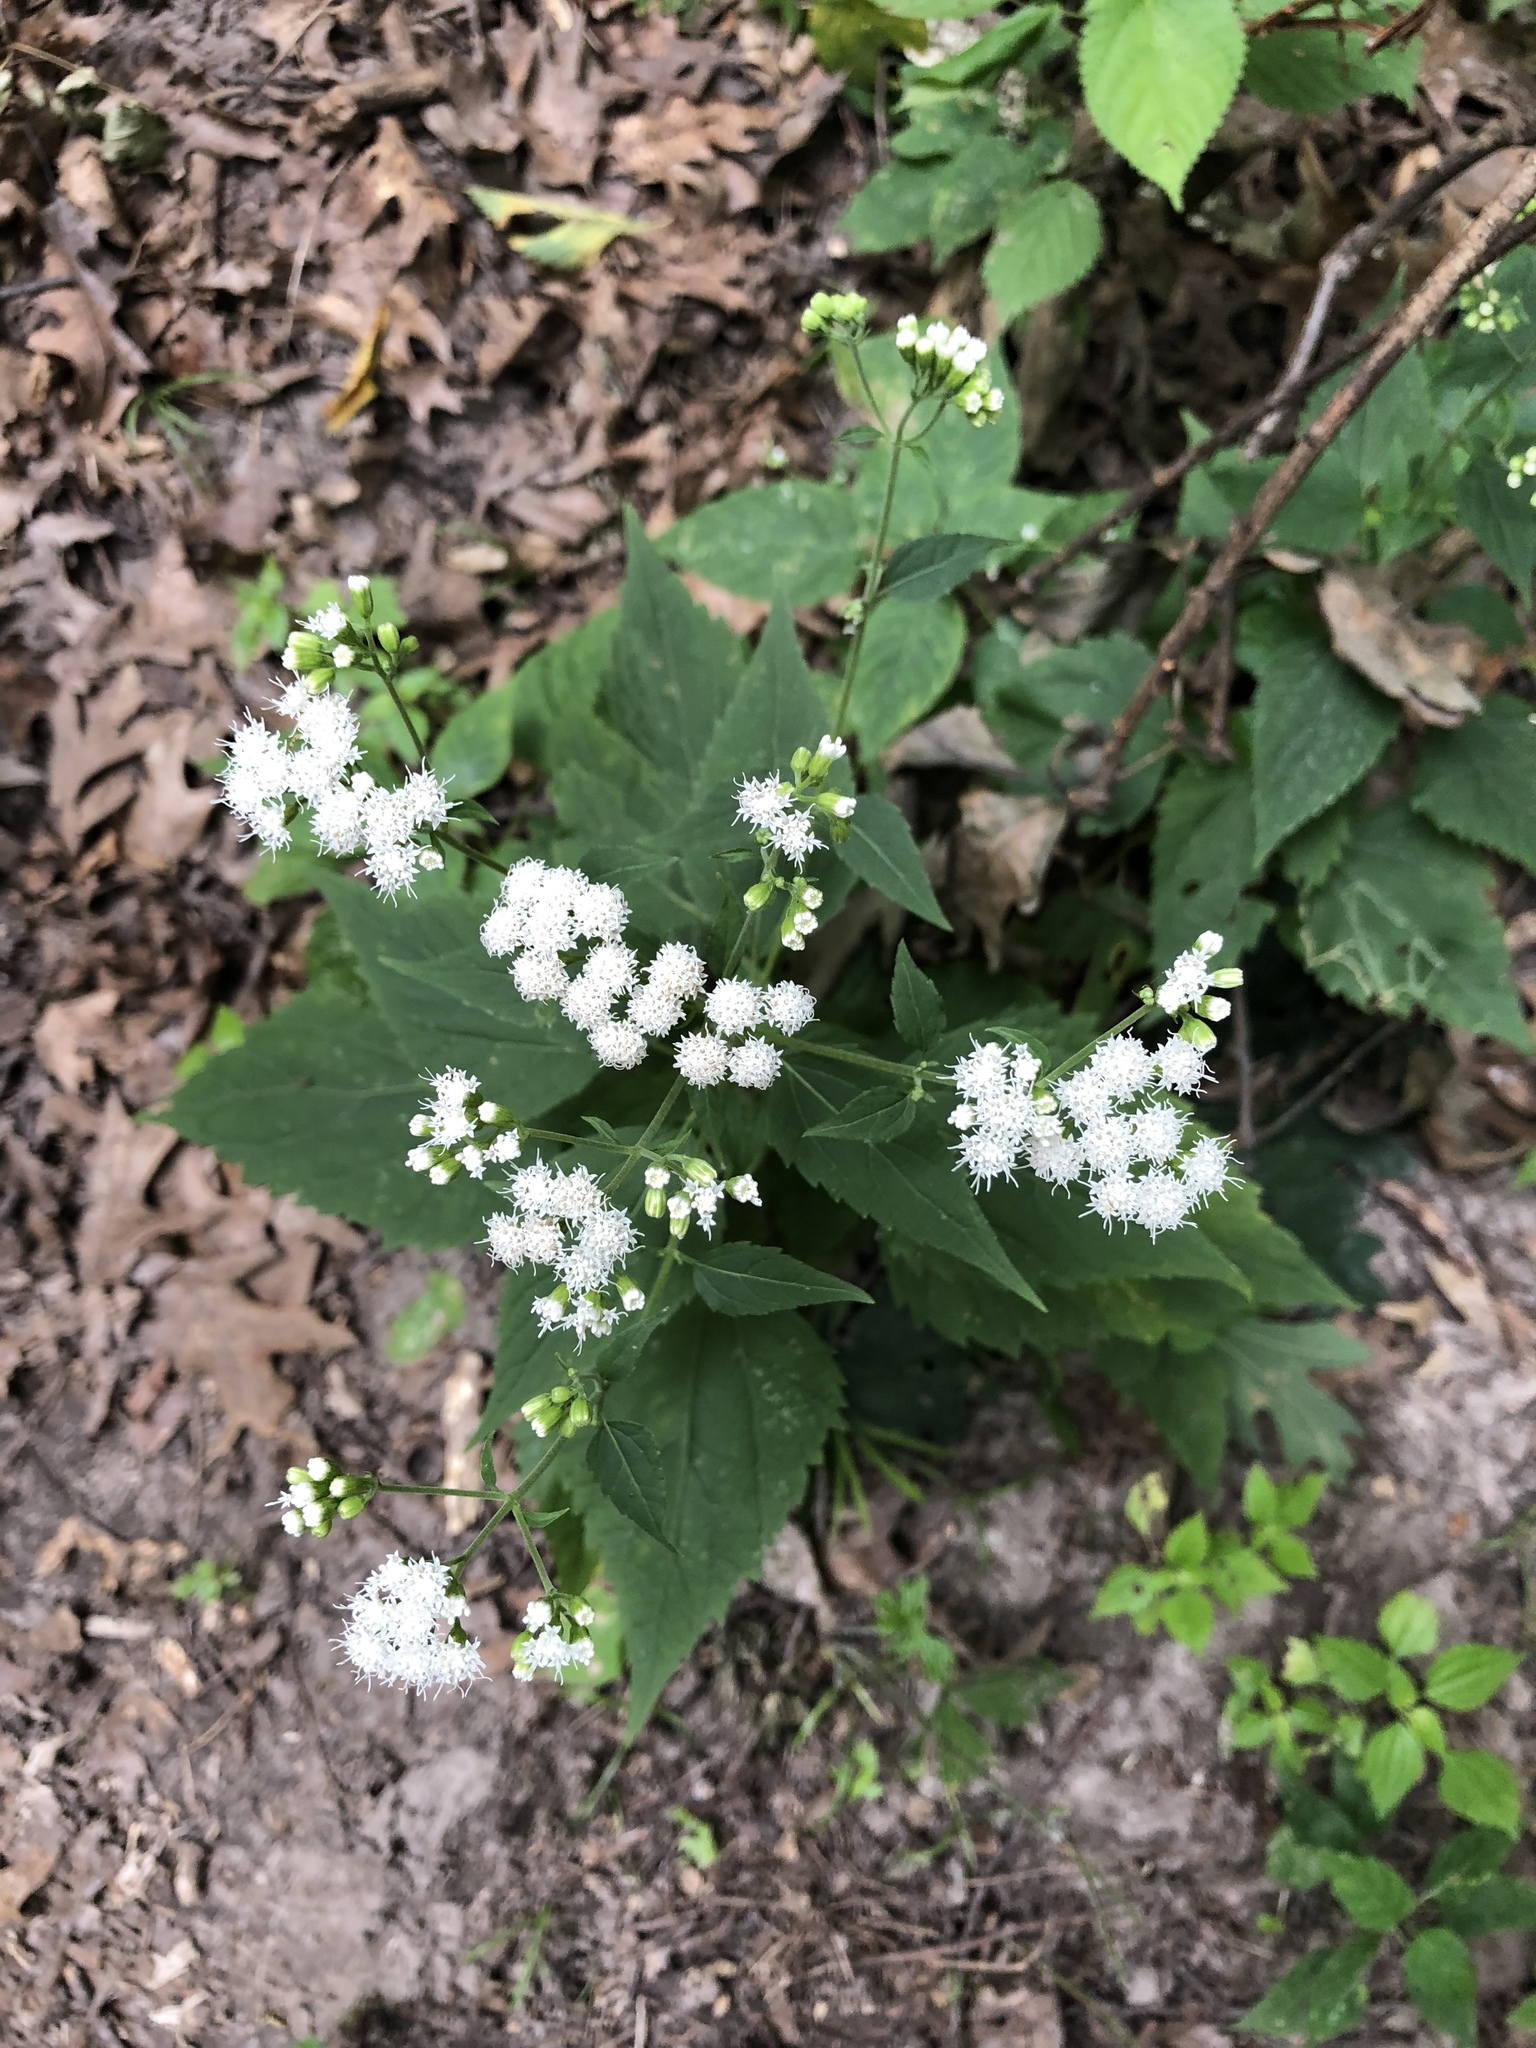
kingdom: Plantae
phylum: Tracheophyta
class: Magnoliopsida
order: Asterales
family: Asteraceae
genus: Ageratina
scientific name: Ageratina altissima
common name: White snakeroot
